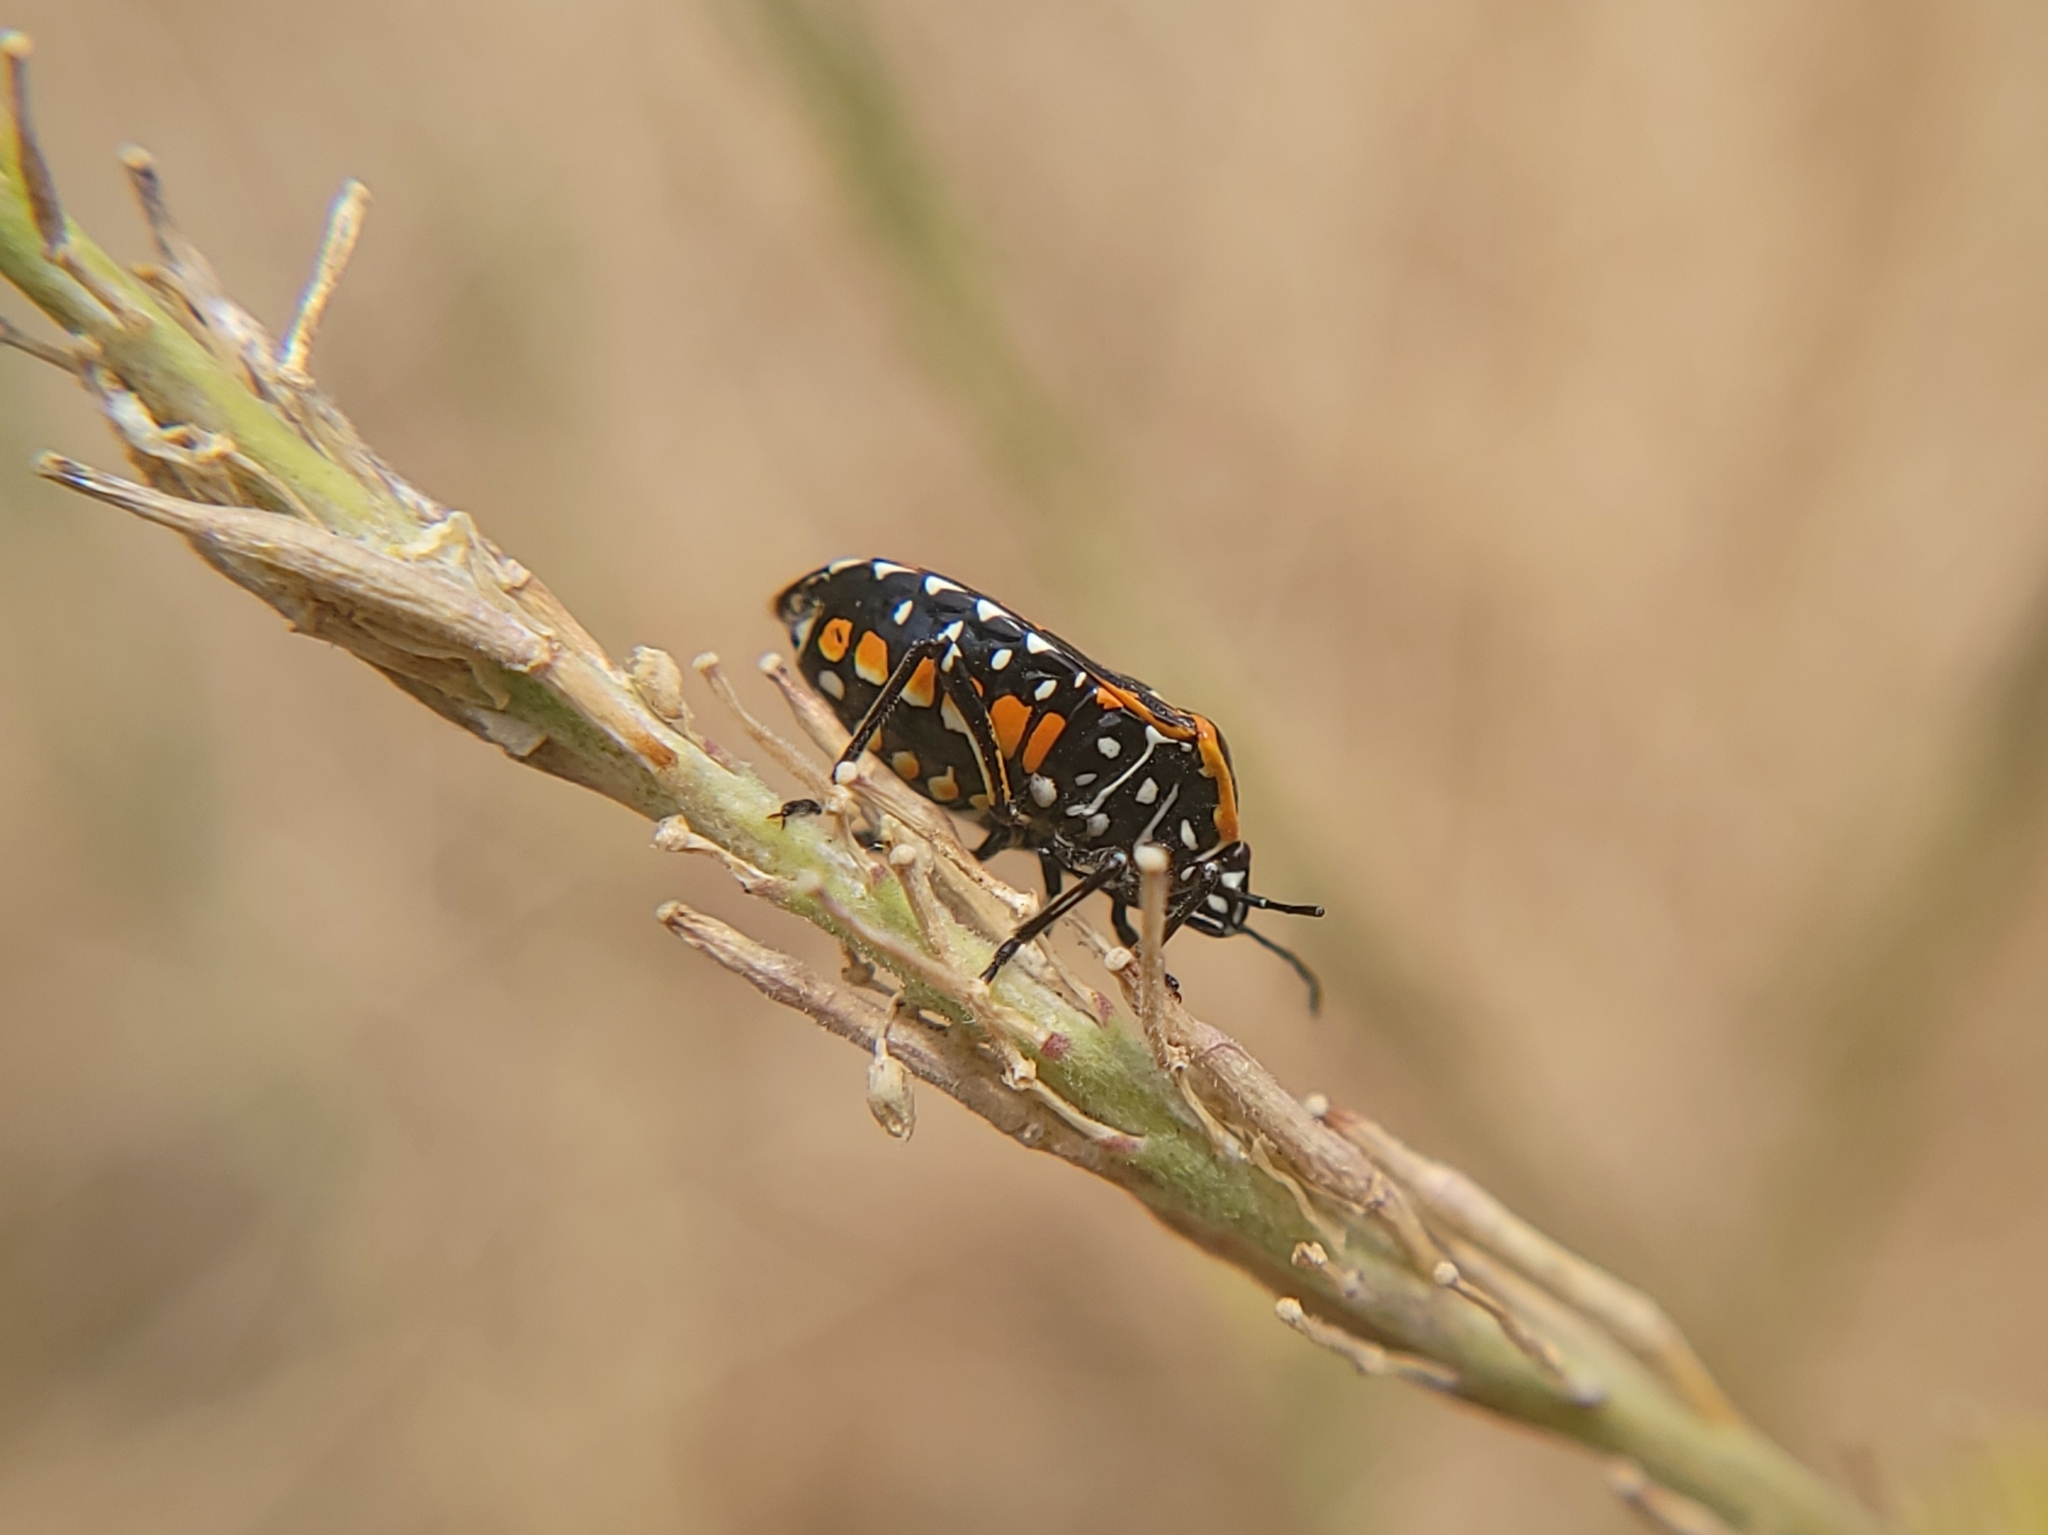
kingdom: Animalia
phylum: Arthropoda
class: Insecta
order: Hemiptera
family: Pentatomidae
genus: Murgantia
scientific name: Murgantia histrionica
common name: Harlequin bug
